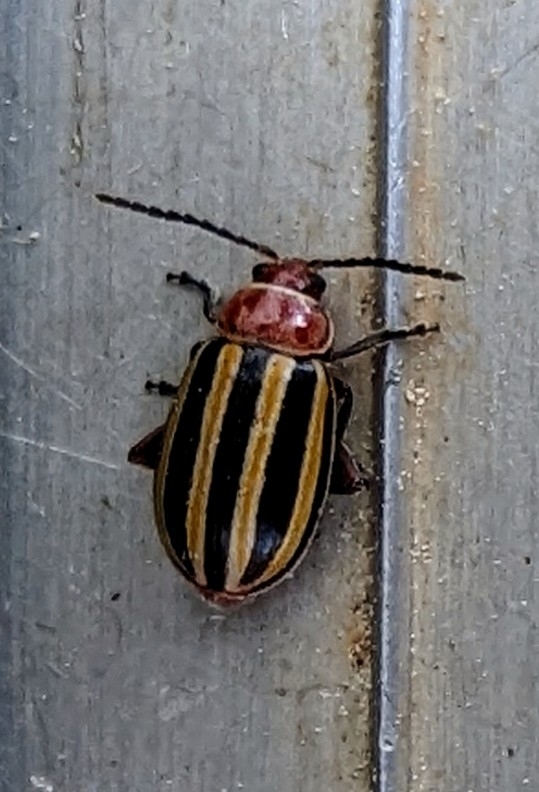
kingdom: Animalia
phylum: Arthropoda
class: Insecta
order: Coleoptera
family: Chrysomelidae
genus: Disonycha
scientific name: Disonycha glabrata
